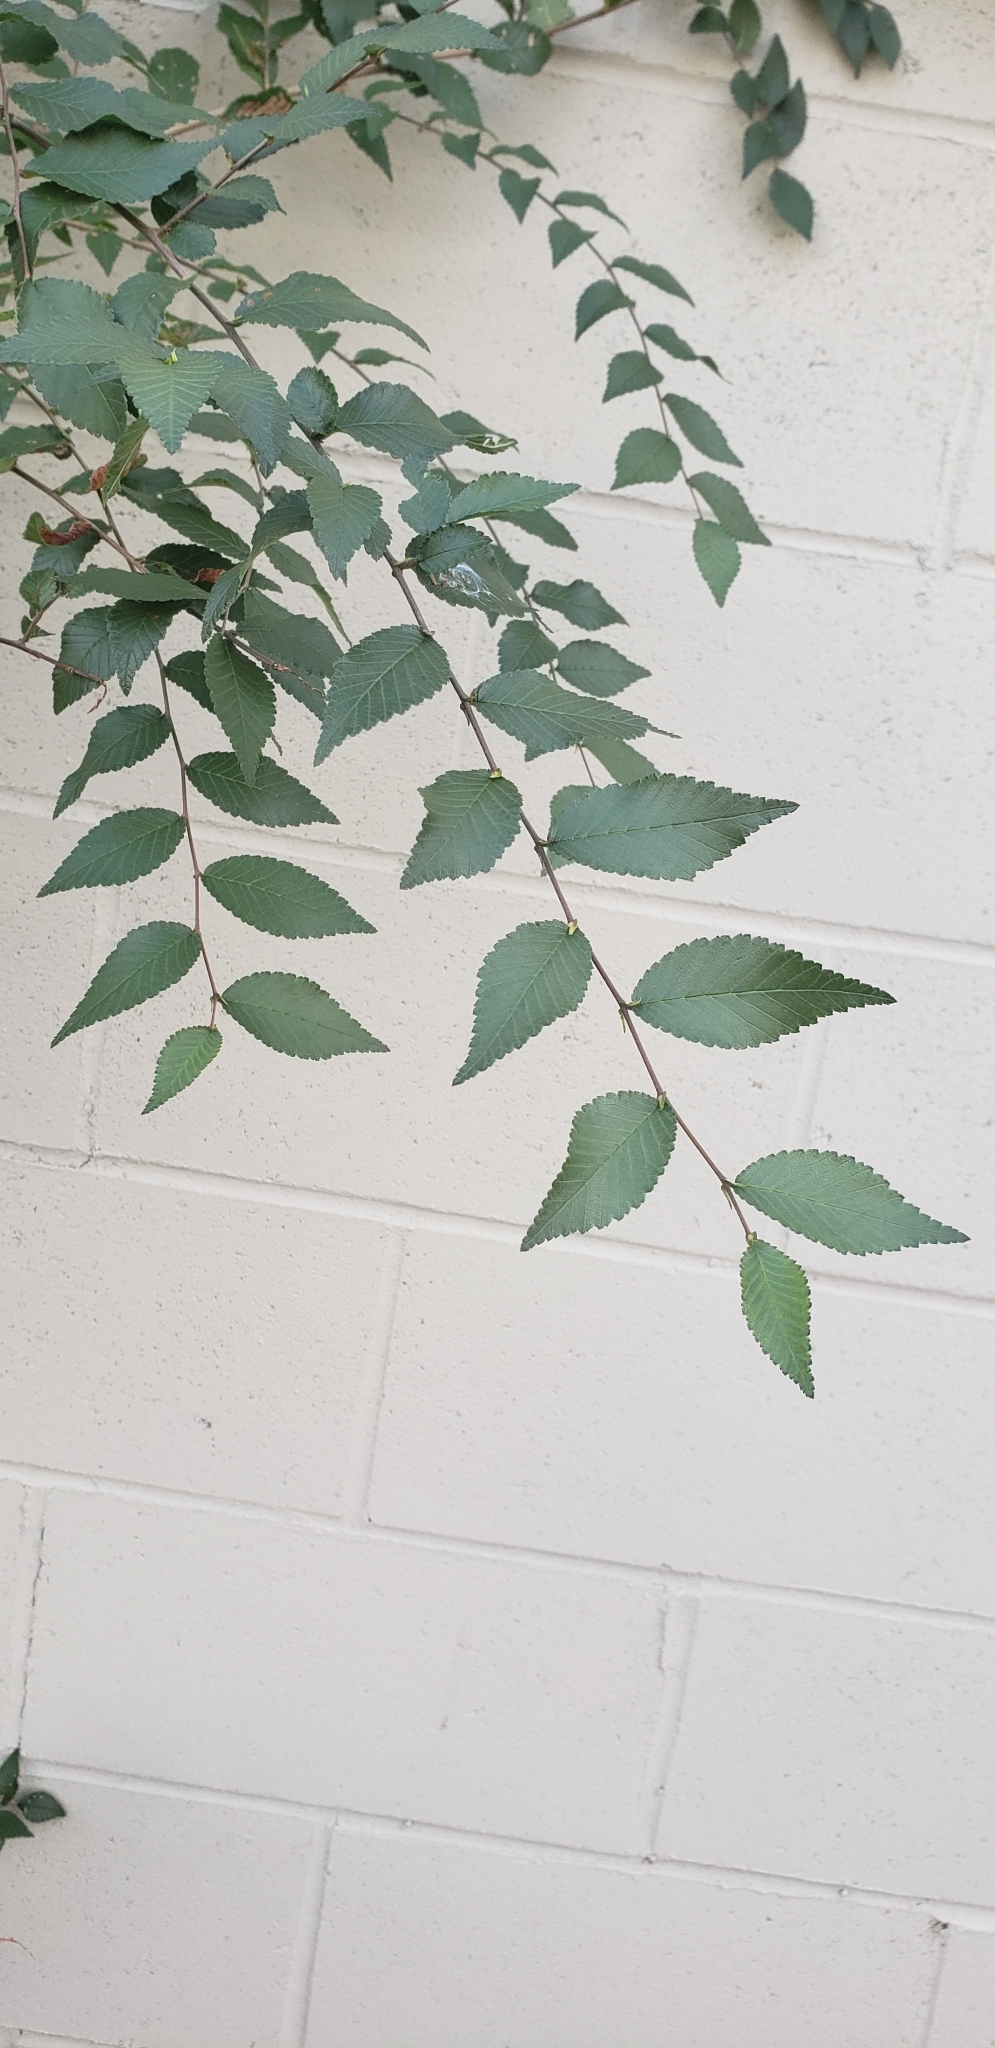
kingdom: Plantae
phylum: Tracheophyta
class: Magnoliopsida
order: Rosales
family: Ulmaceae
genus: Ulmus
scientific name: Ulmus pumila
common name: Siberian elm
